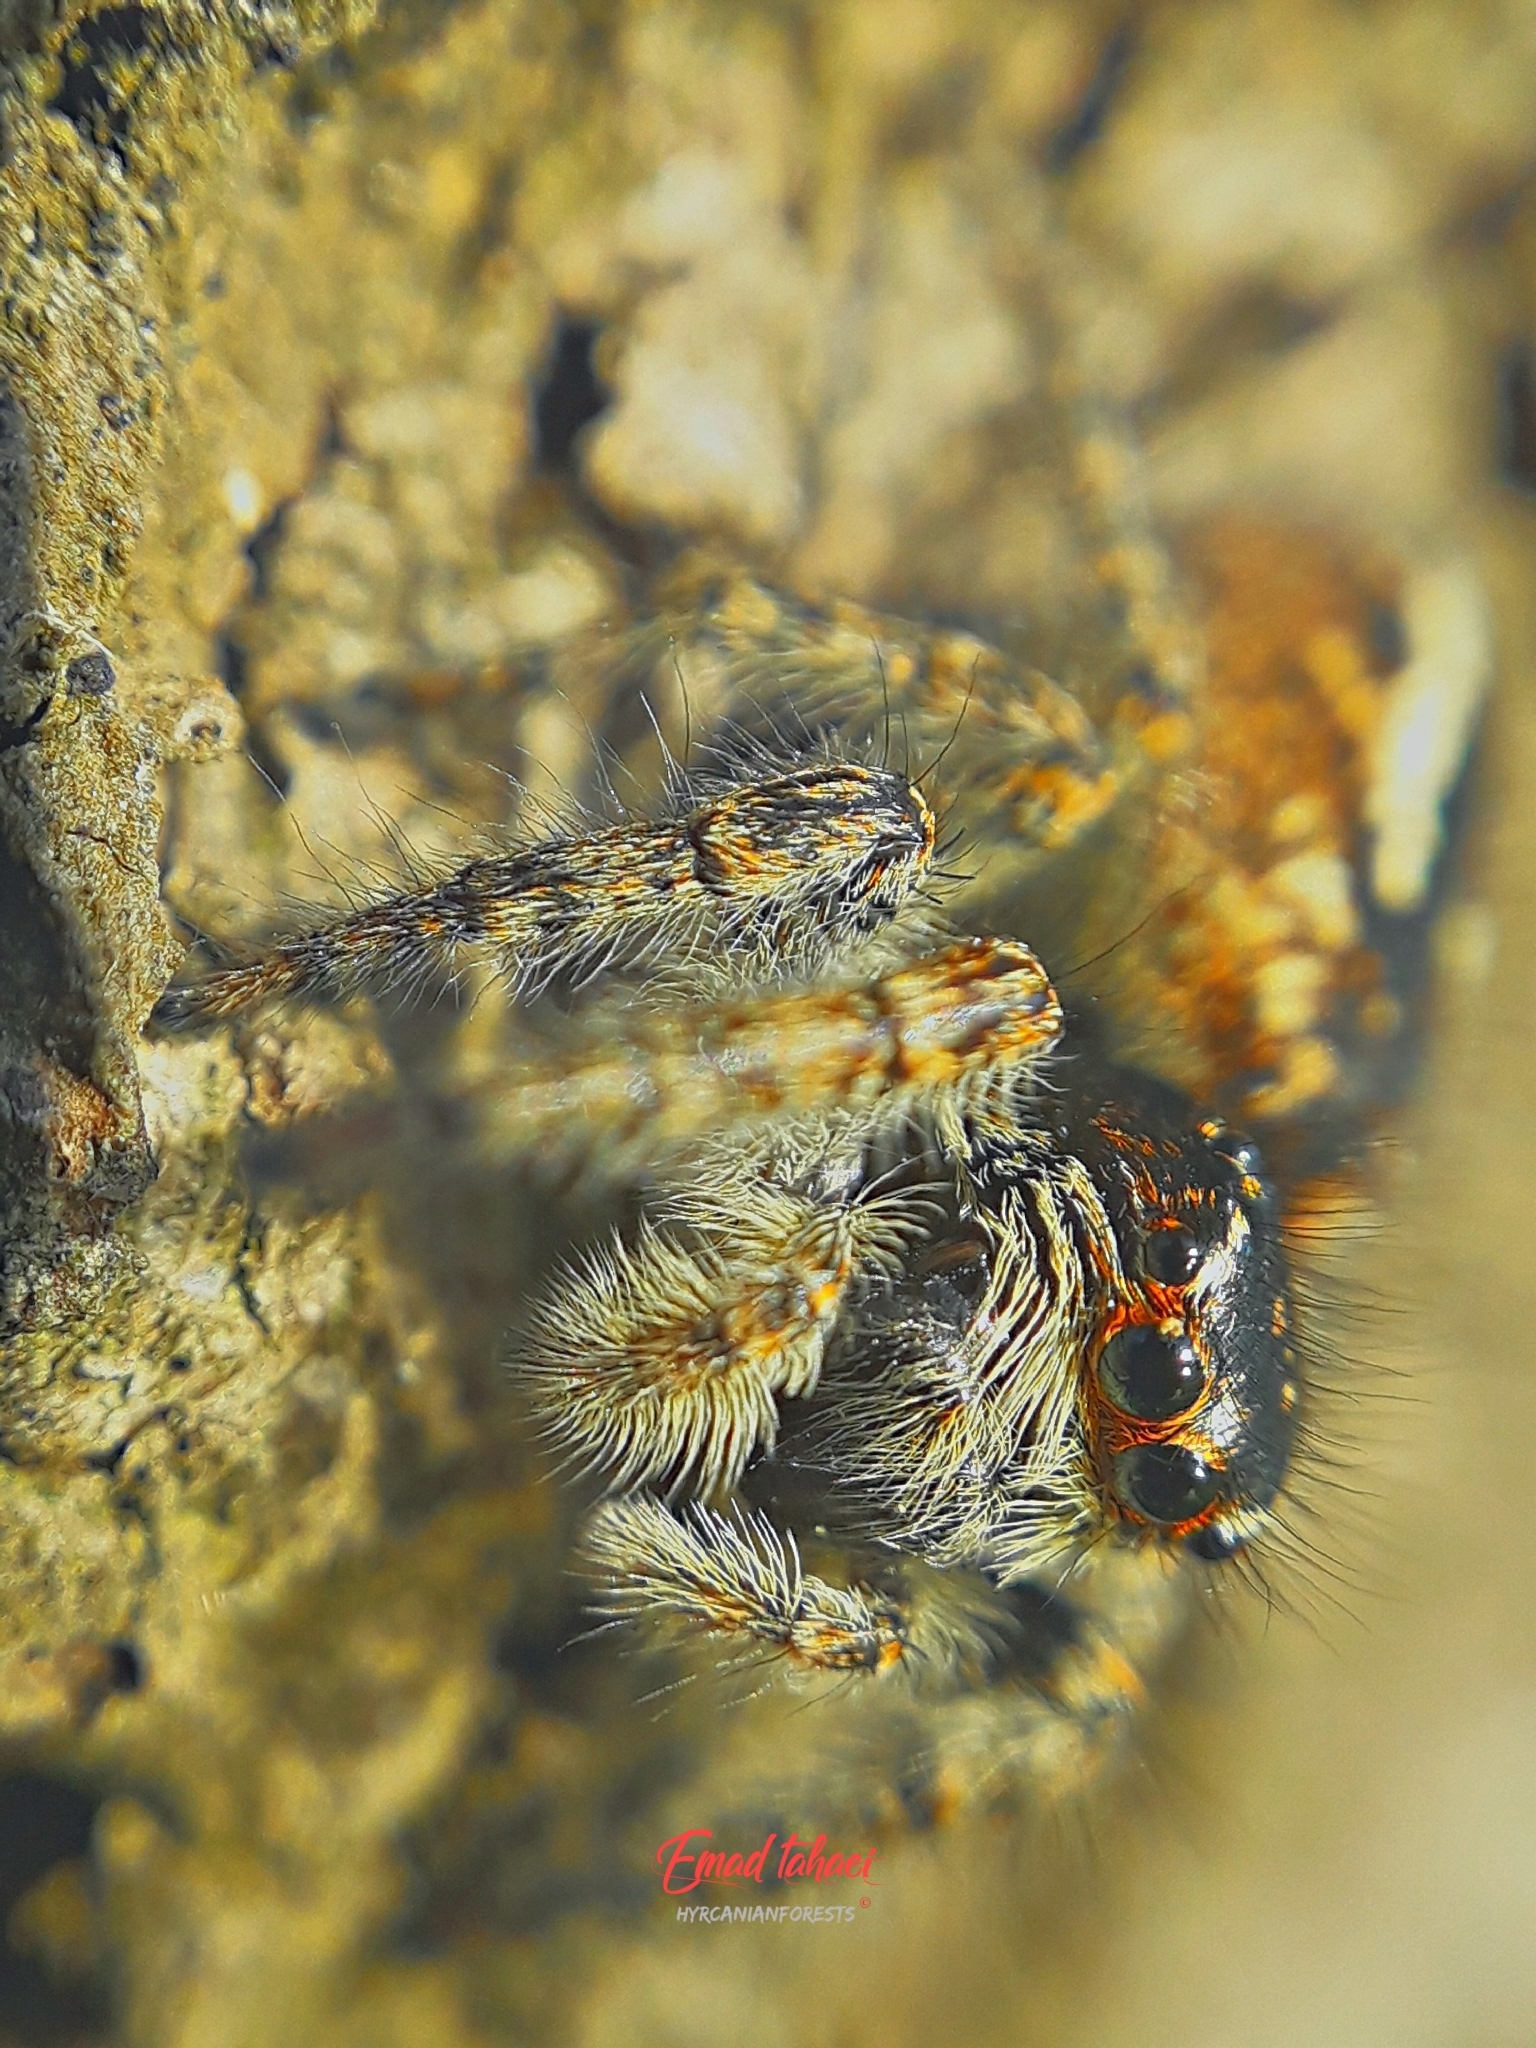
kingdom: Animalia
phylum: Arthropoda
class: Arachnida
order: Araneae
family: Salticidae
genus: Philaeus
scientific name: Philaeus chrysops
